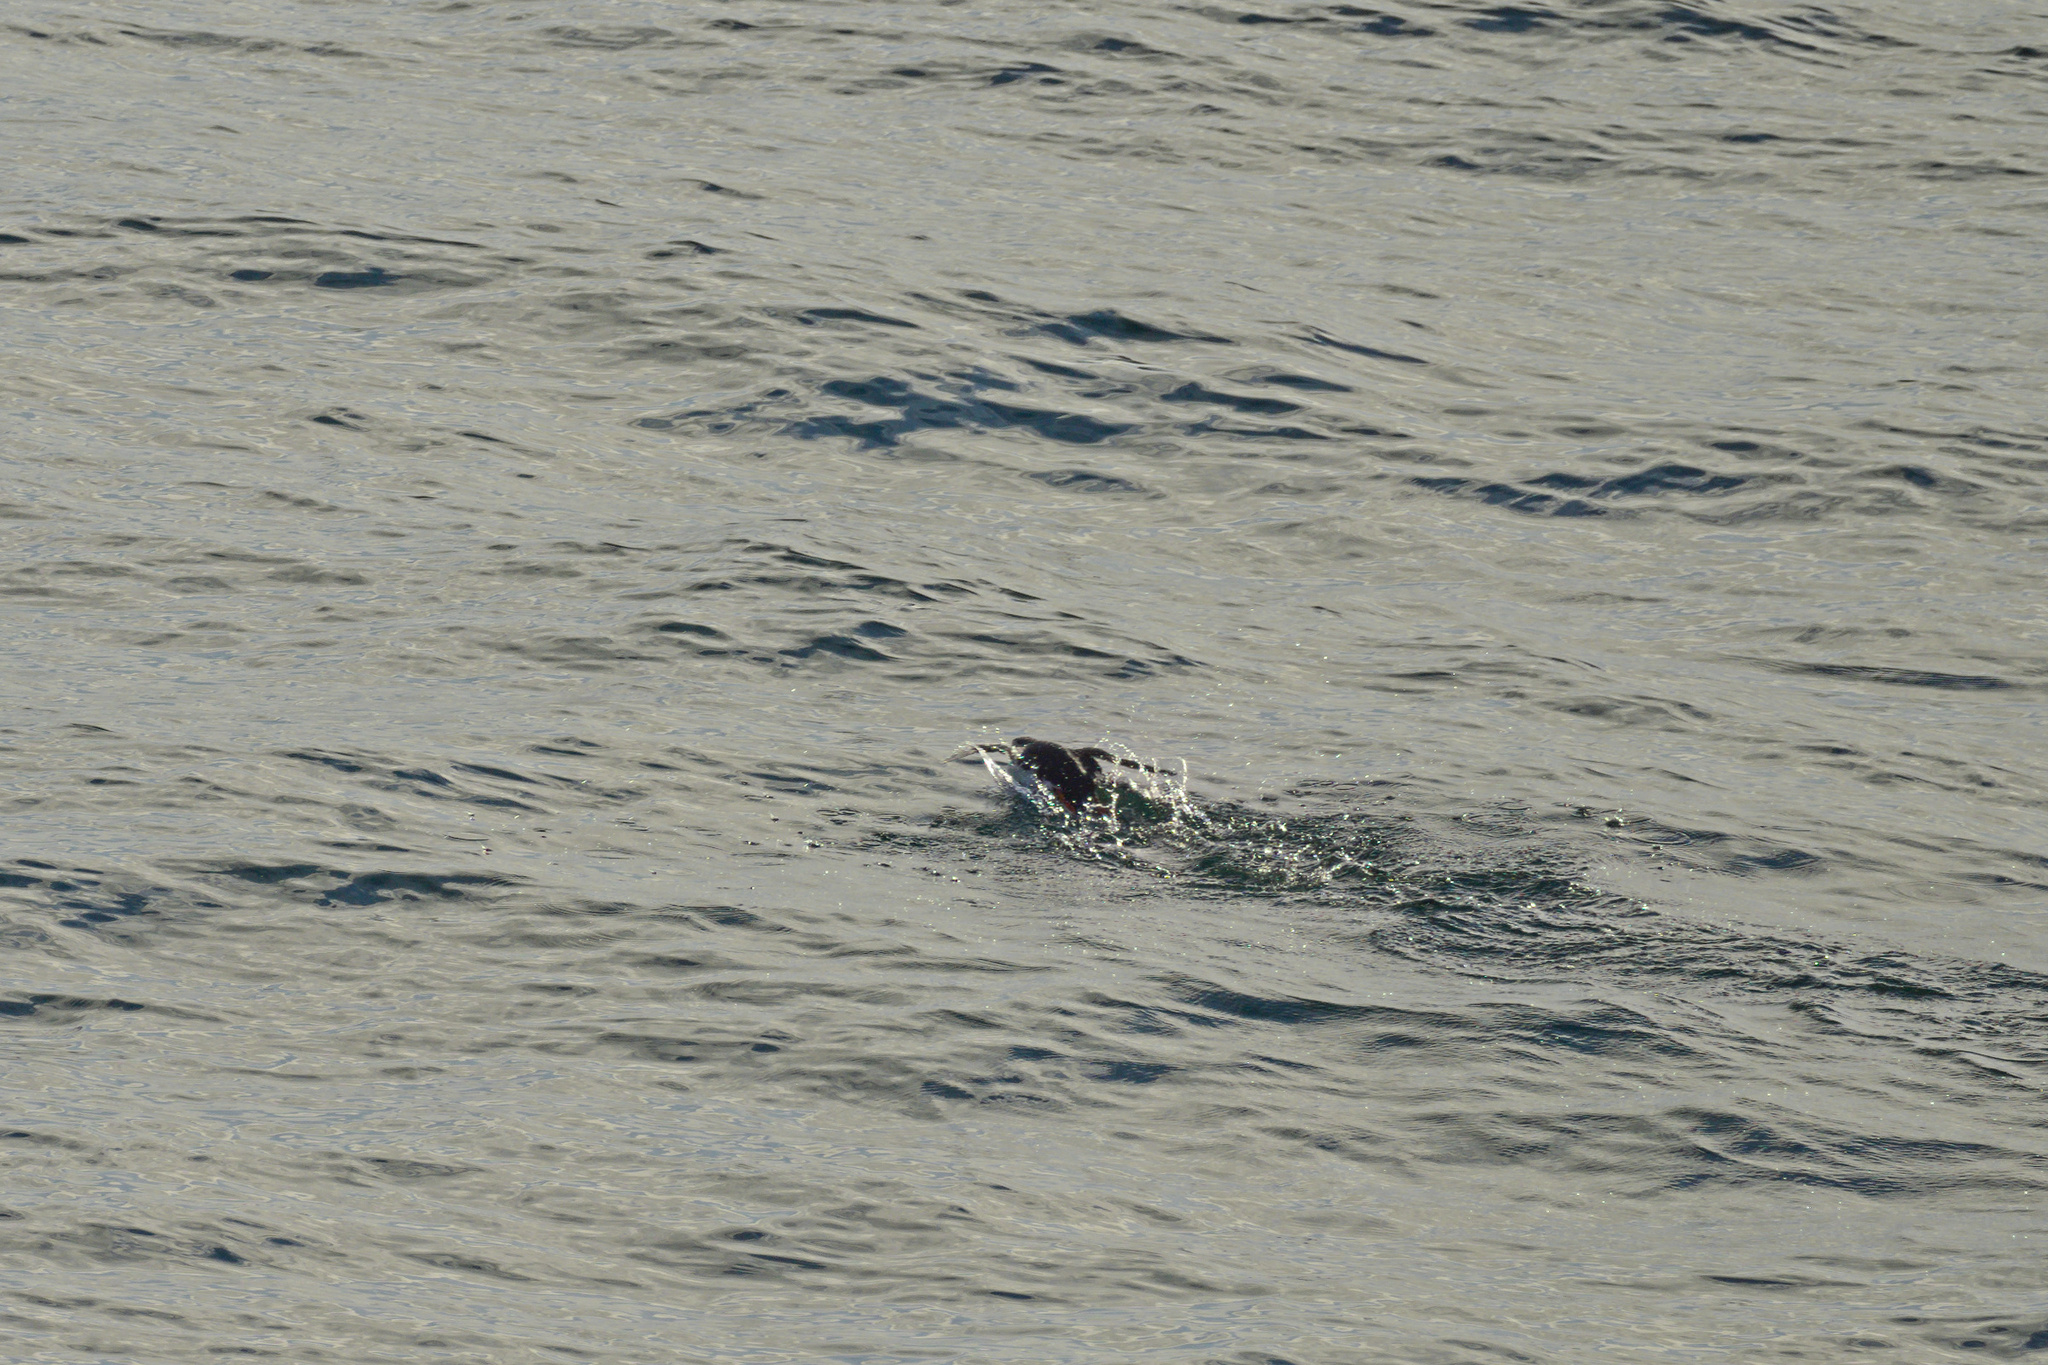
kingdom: Animalia
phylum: Chordata
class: Aves
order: Charadriiformes
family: Alcidae
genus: Fratercula
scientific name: Fratercula arctica
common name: Atlantic puffin
